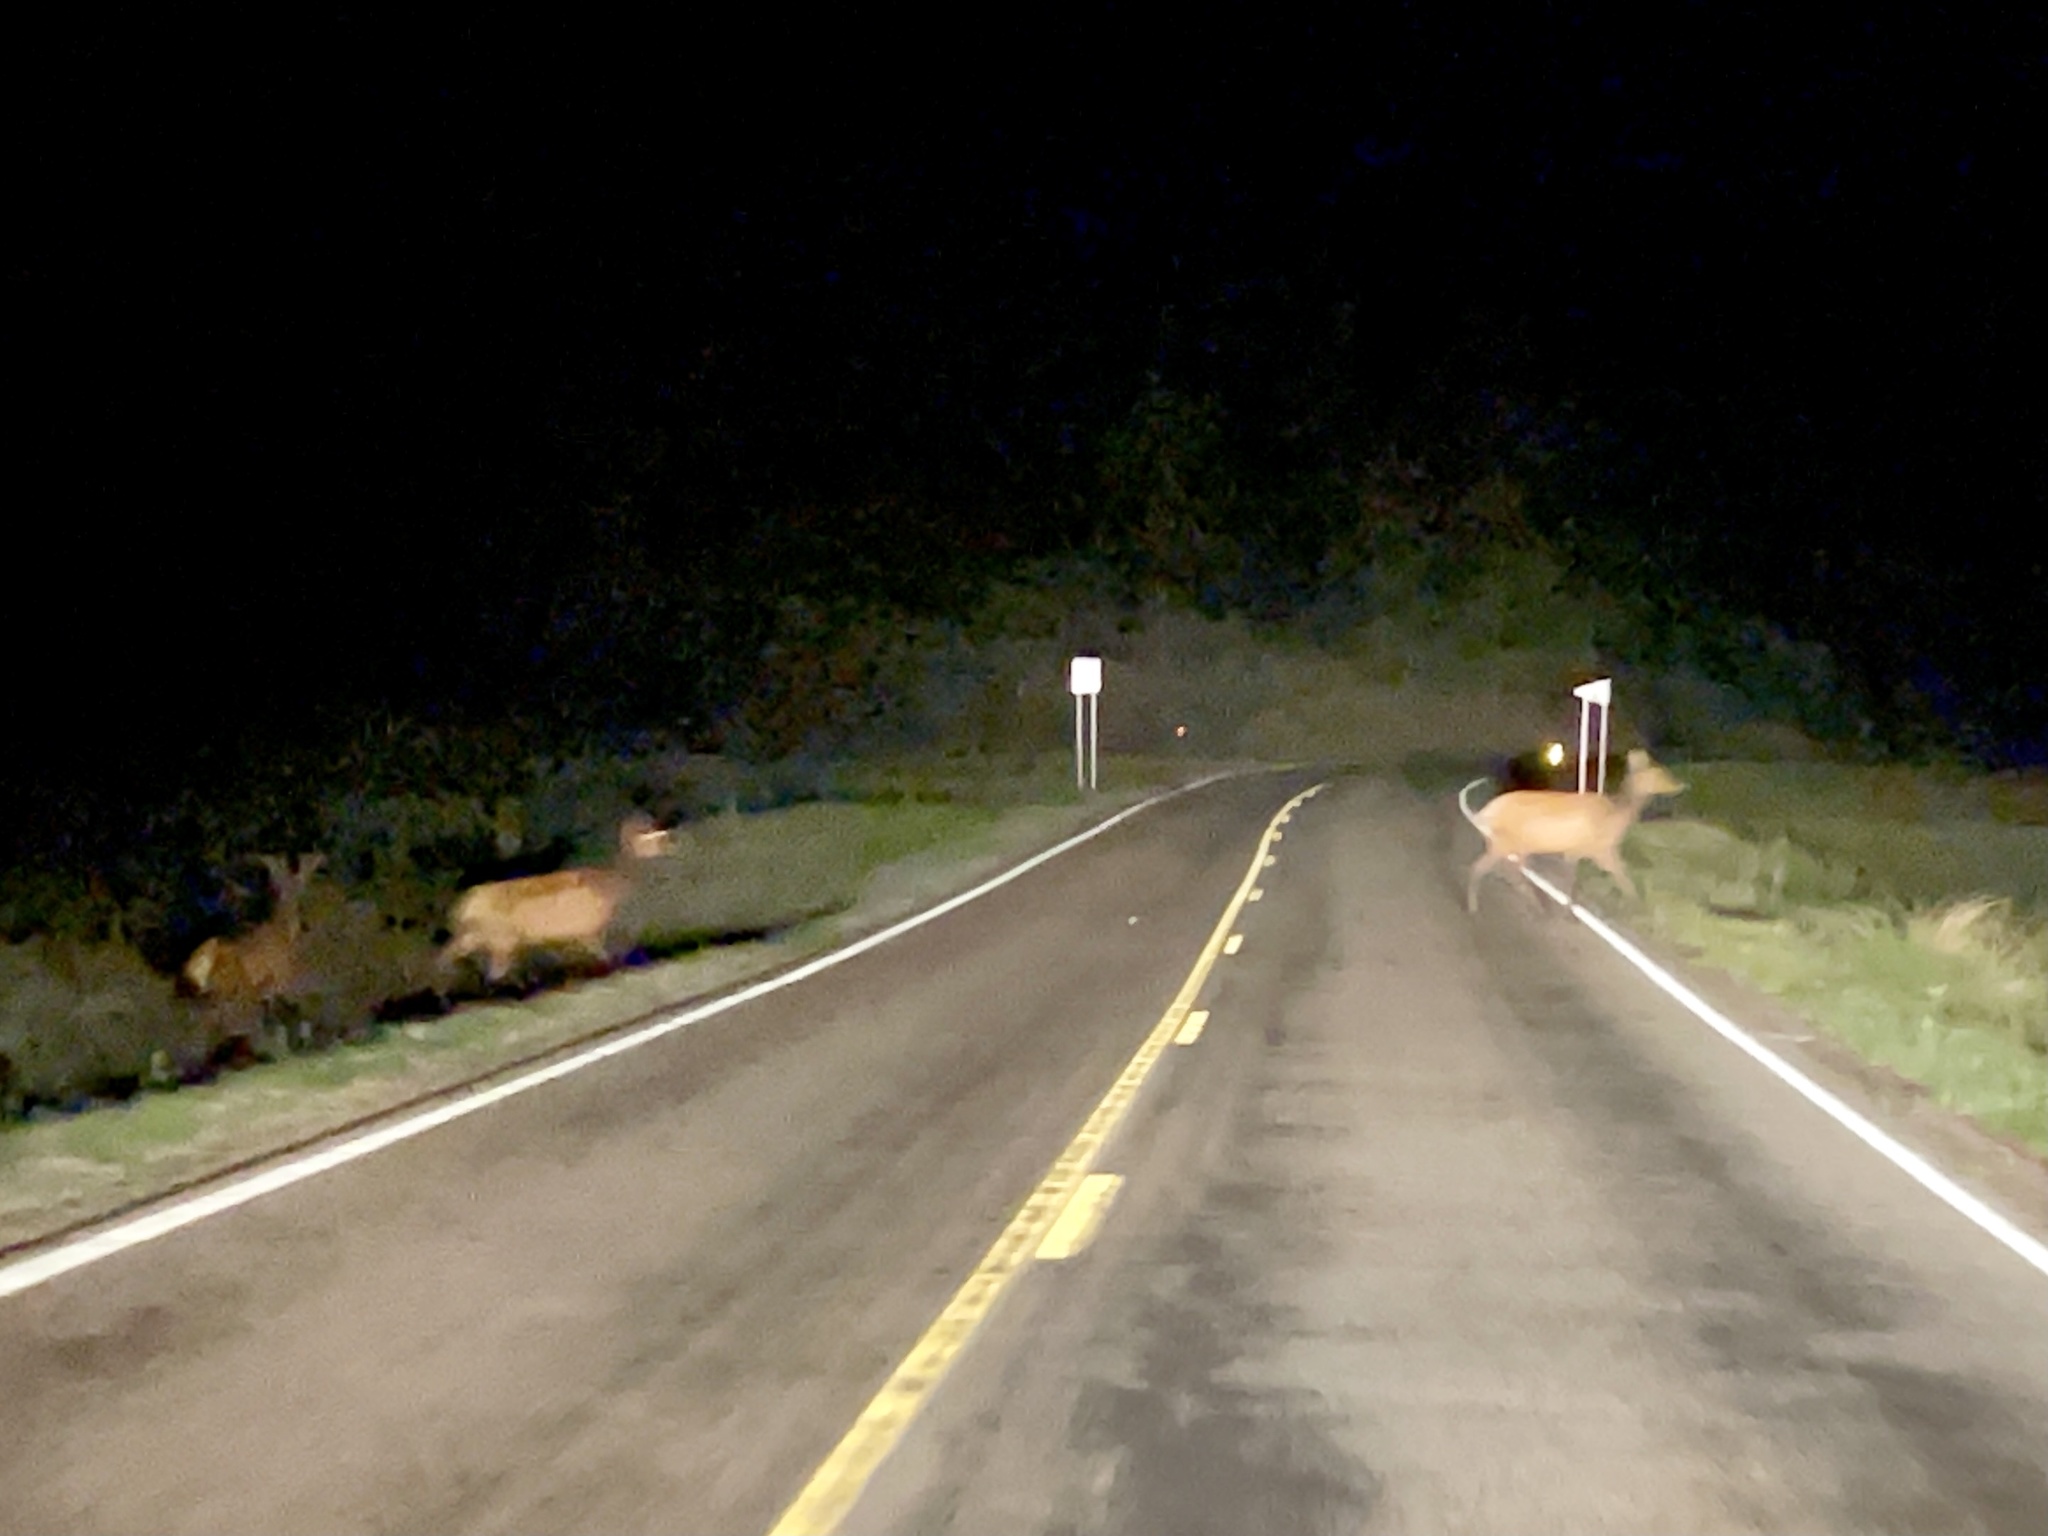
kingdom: Animalia
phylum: Chordata
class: Mammalia
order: Artiodactyla
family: Cervidae
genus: Cervus
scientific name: Cervus elaphus
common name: Red deer
